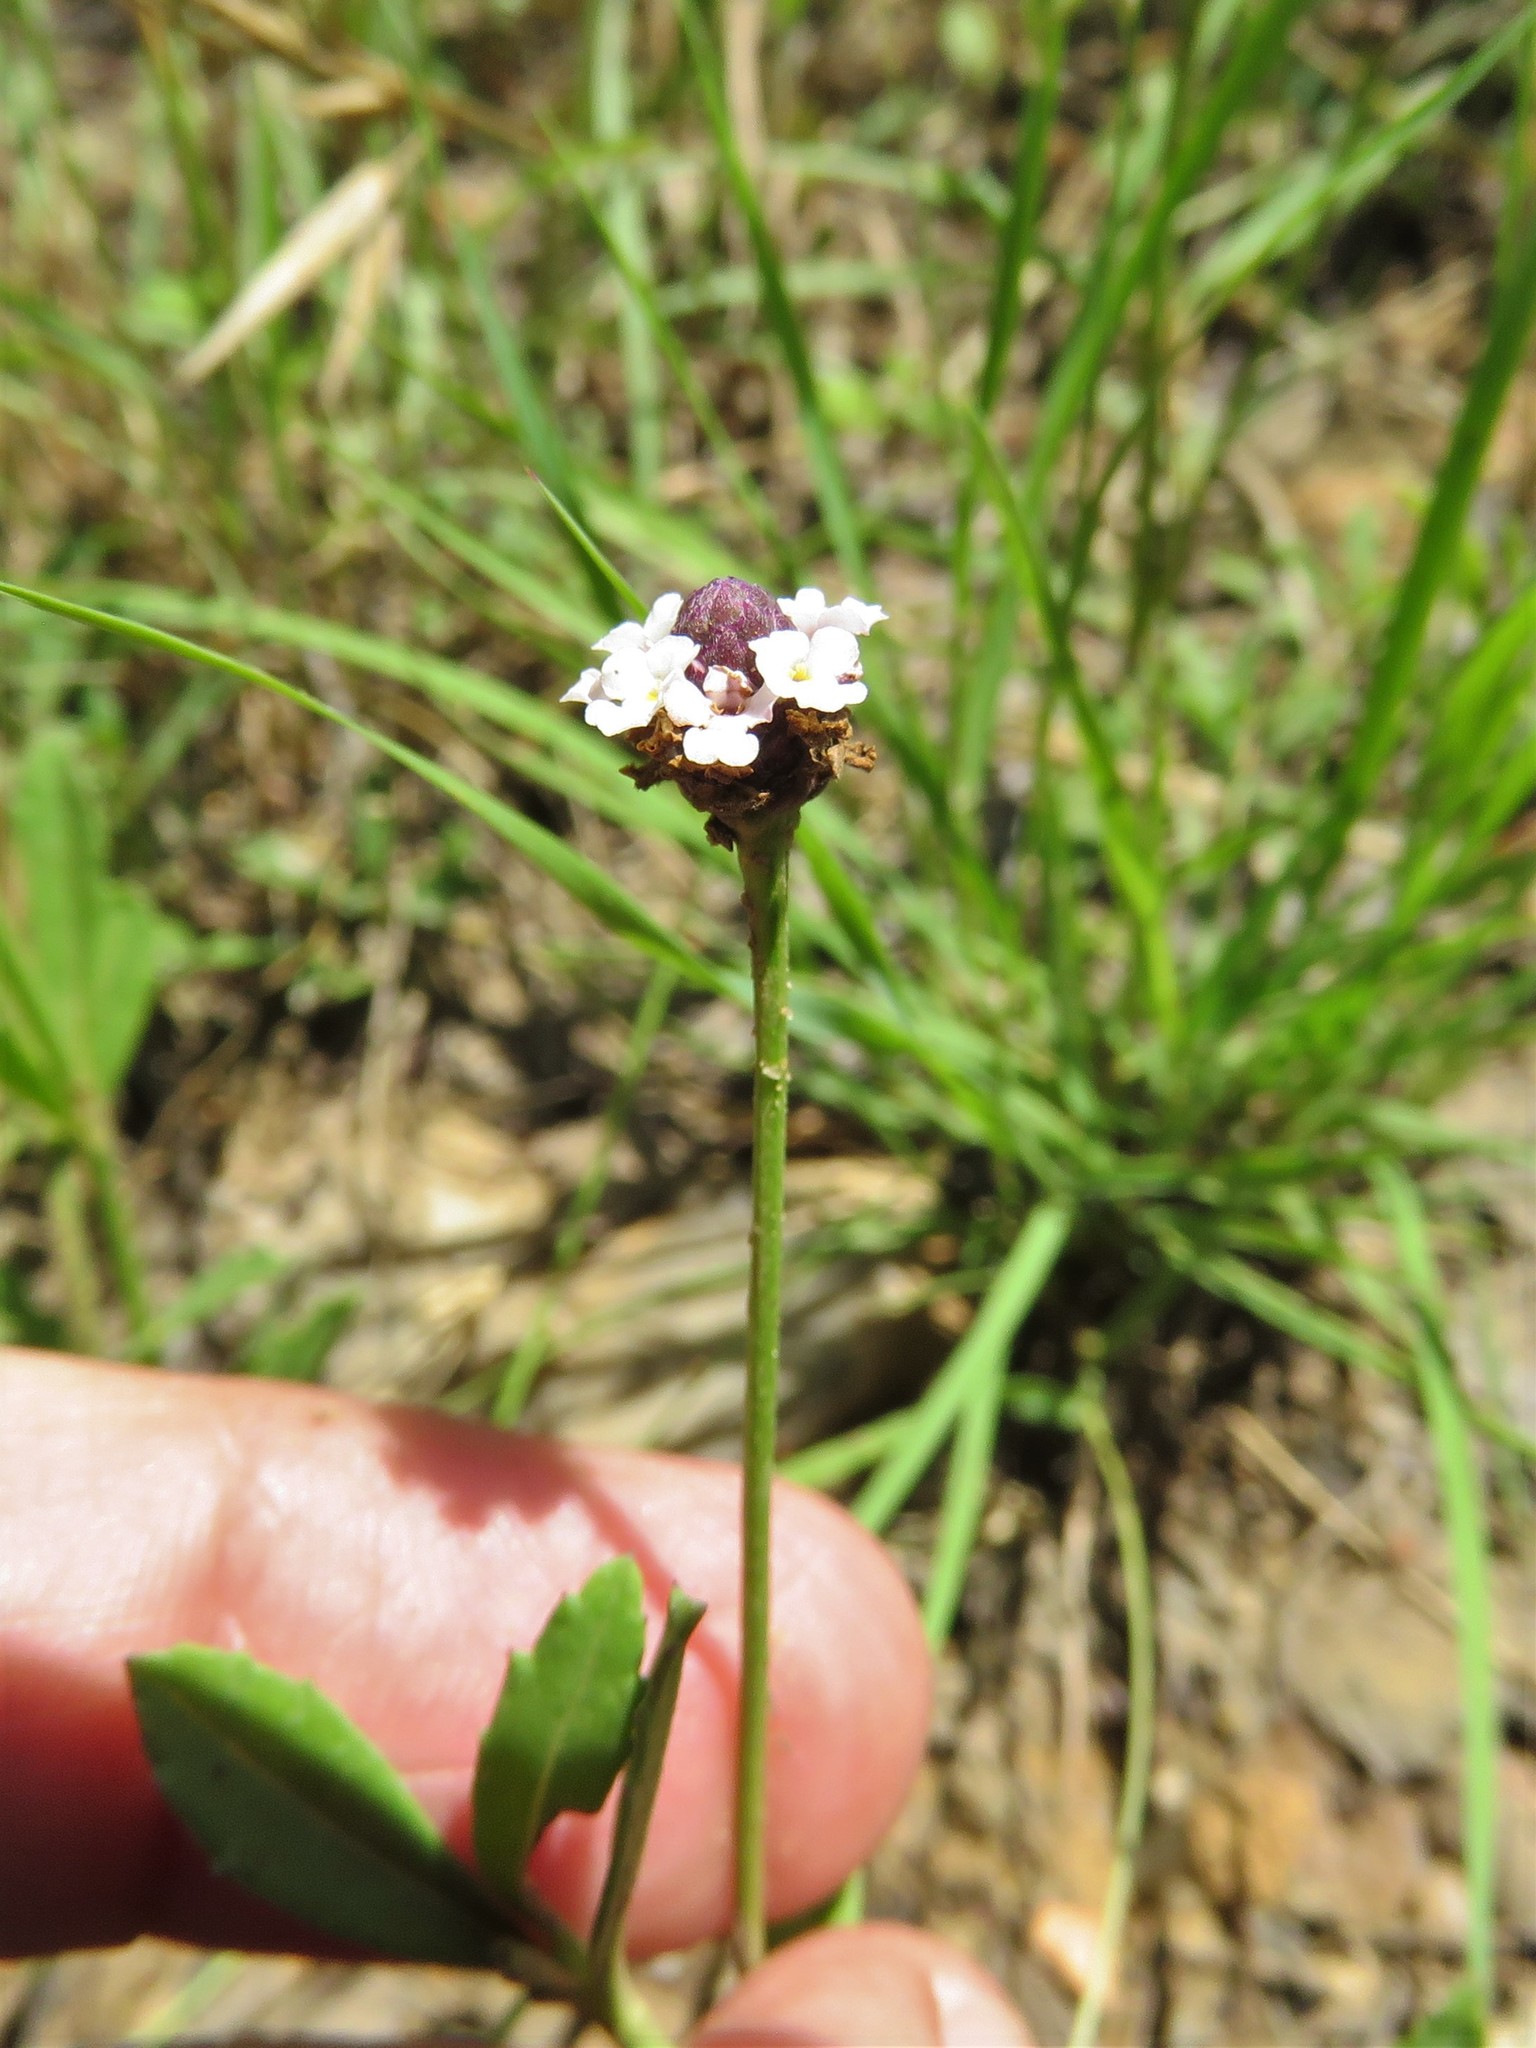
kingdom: Plantae
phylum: Tracheophyta
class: Magnoliopsida
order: Lamiales
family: Verbenaceae
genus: Phyla
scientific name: Phyla nodiflora
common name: Frogfruit
